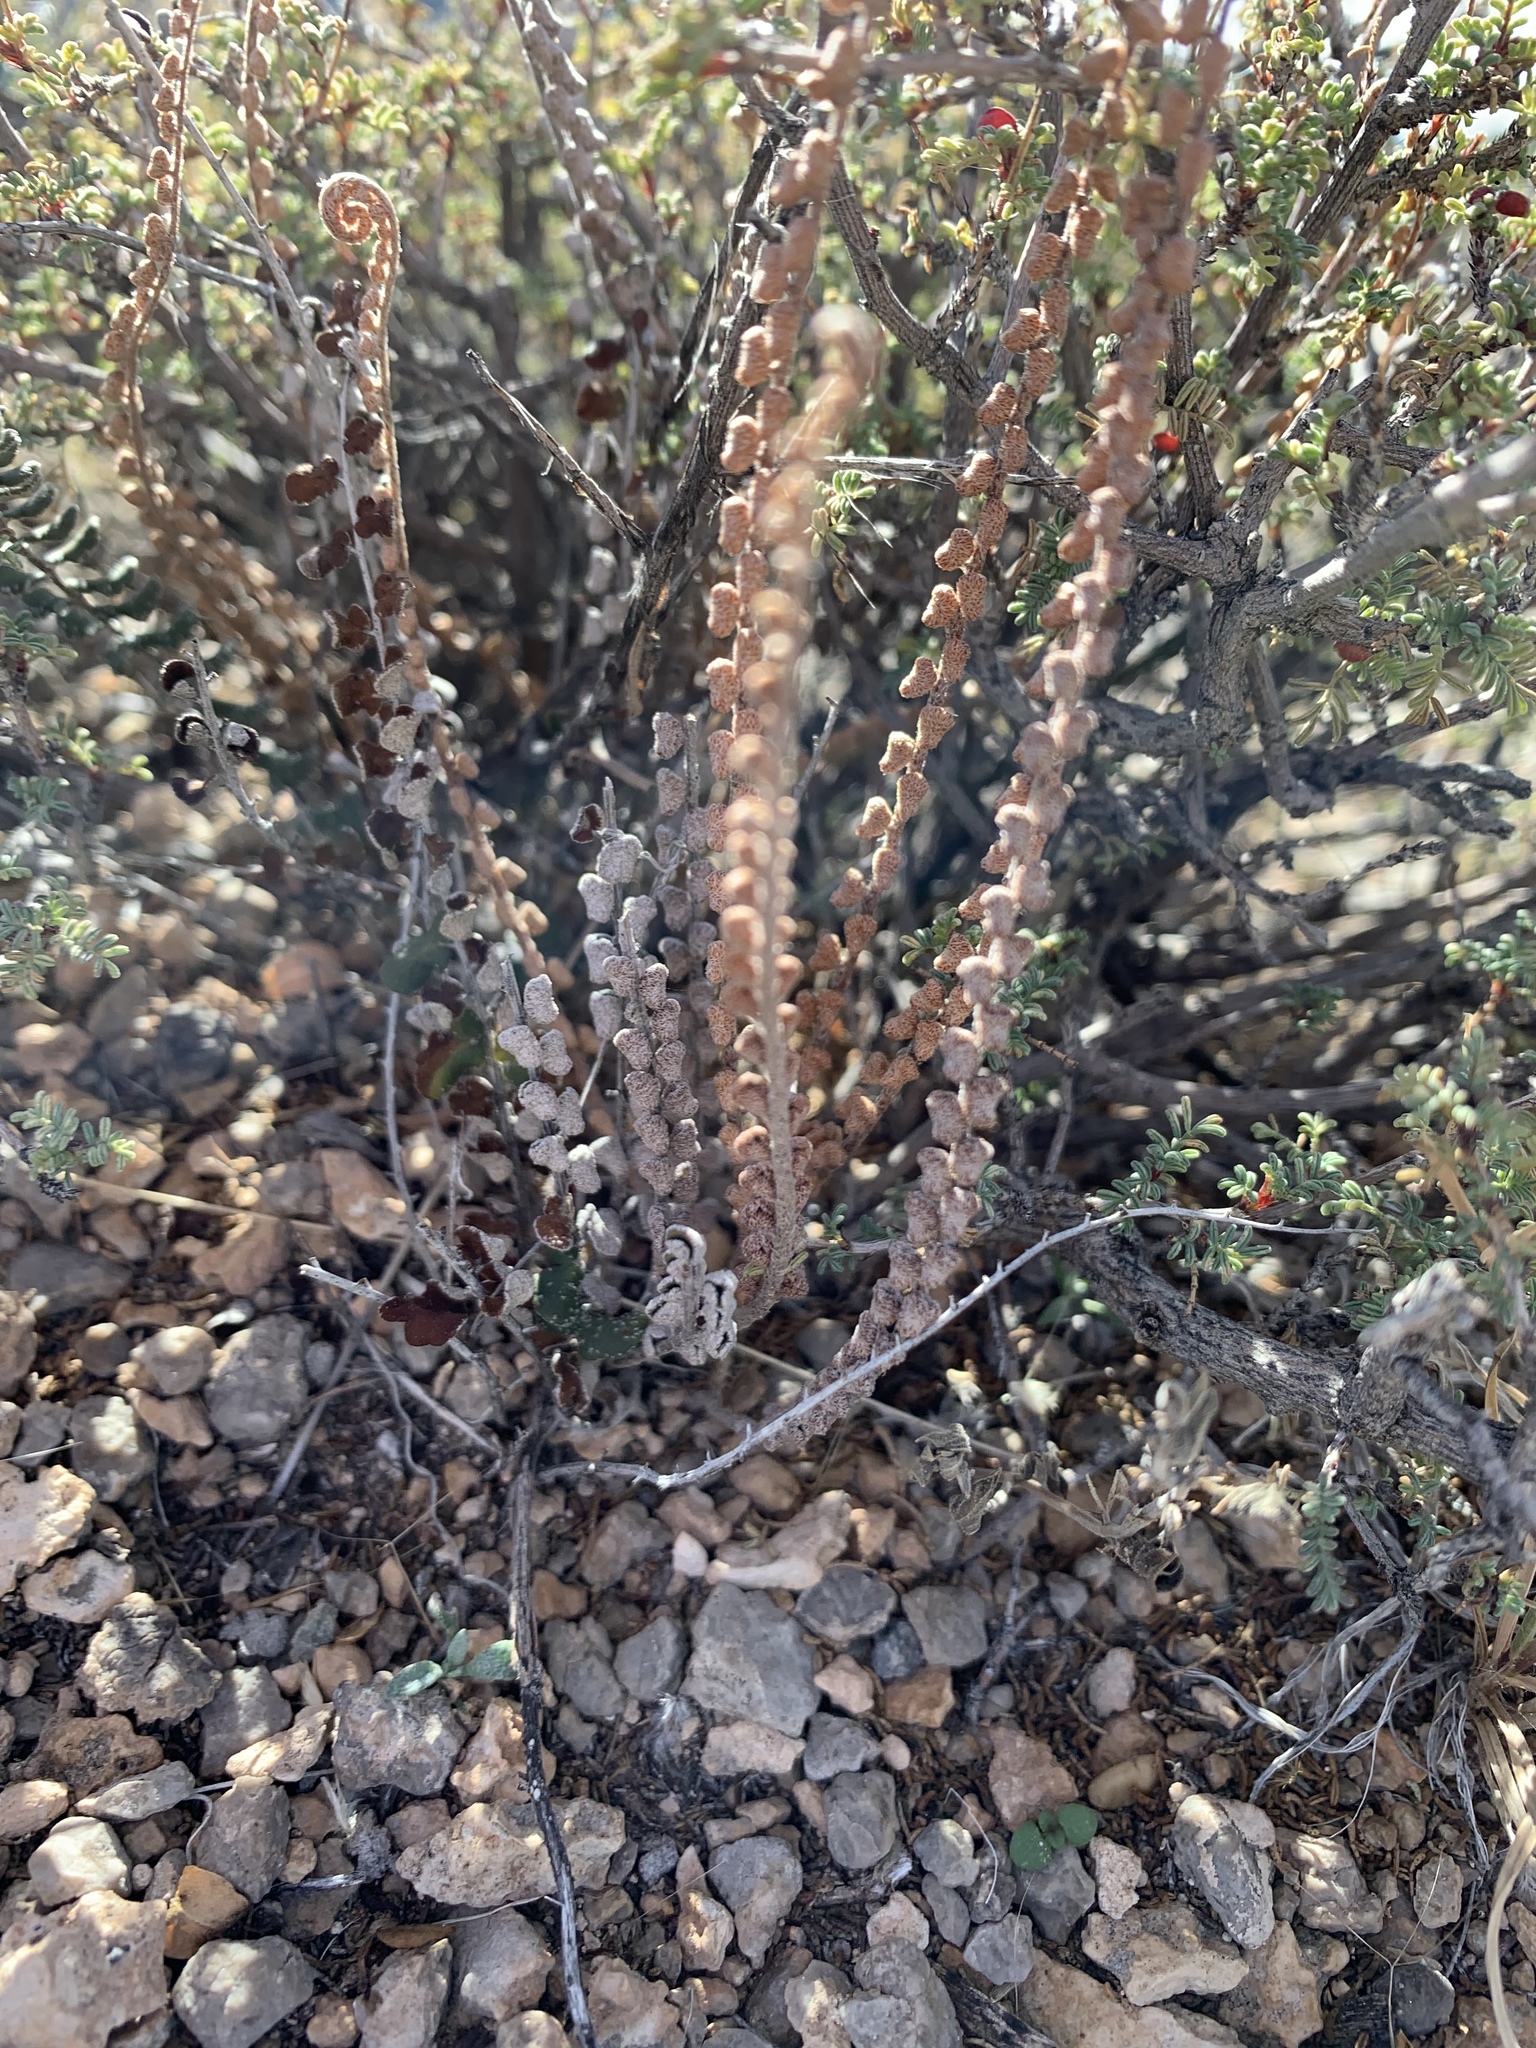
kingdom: Plantae
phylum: Tracheophyta
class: Polypodiopsida
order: Polypodiales
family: Pteridaceae
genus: Astrolepis
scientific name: Astrolepis cochisensis
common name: Scaly cloak fern
